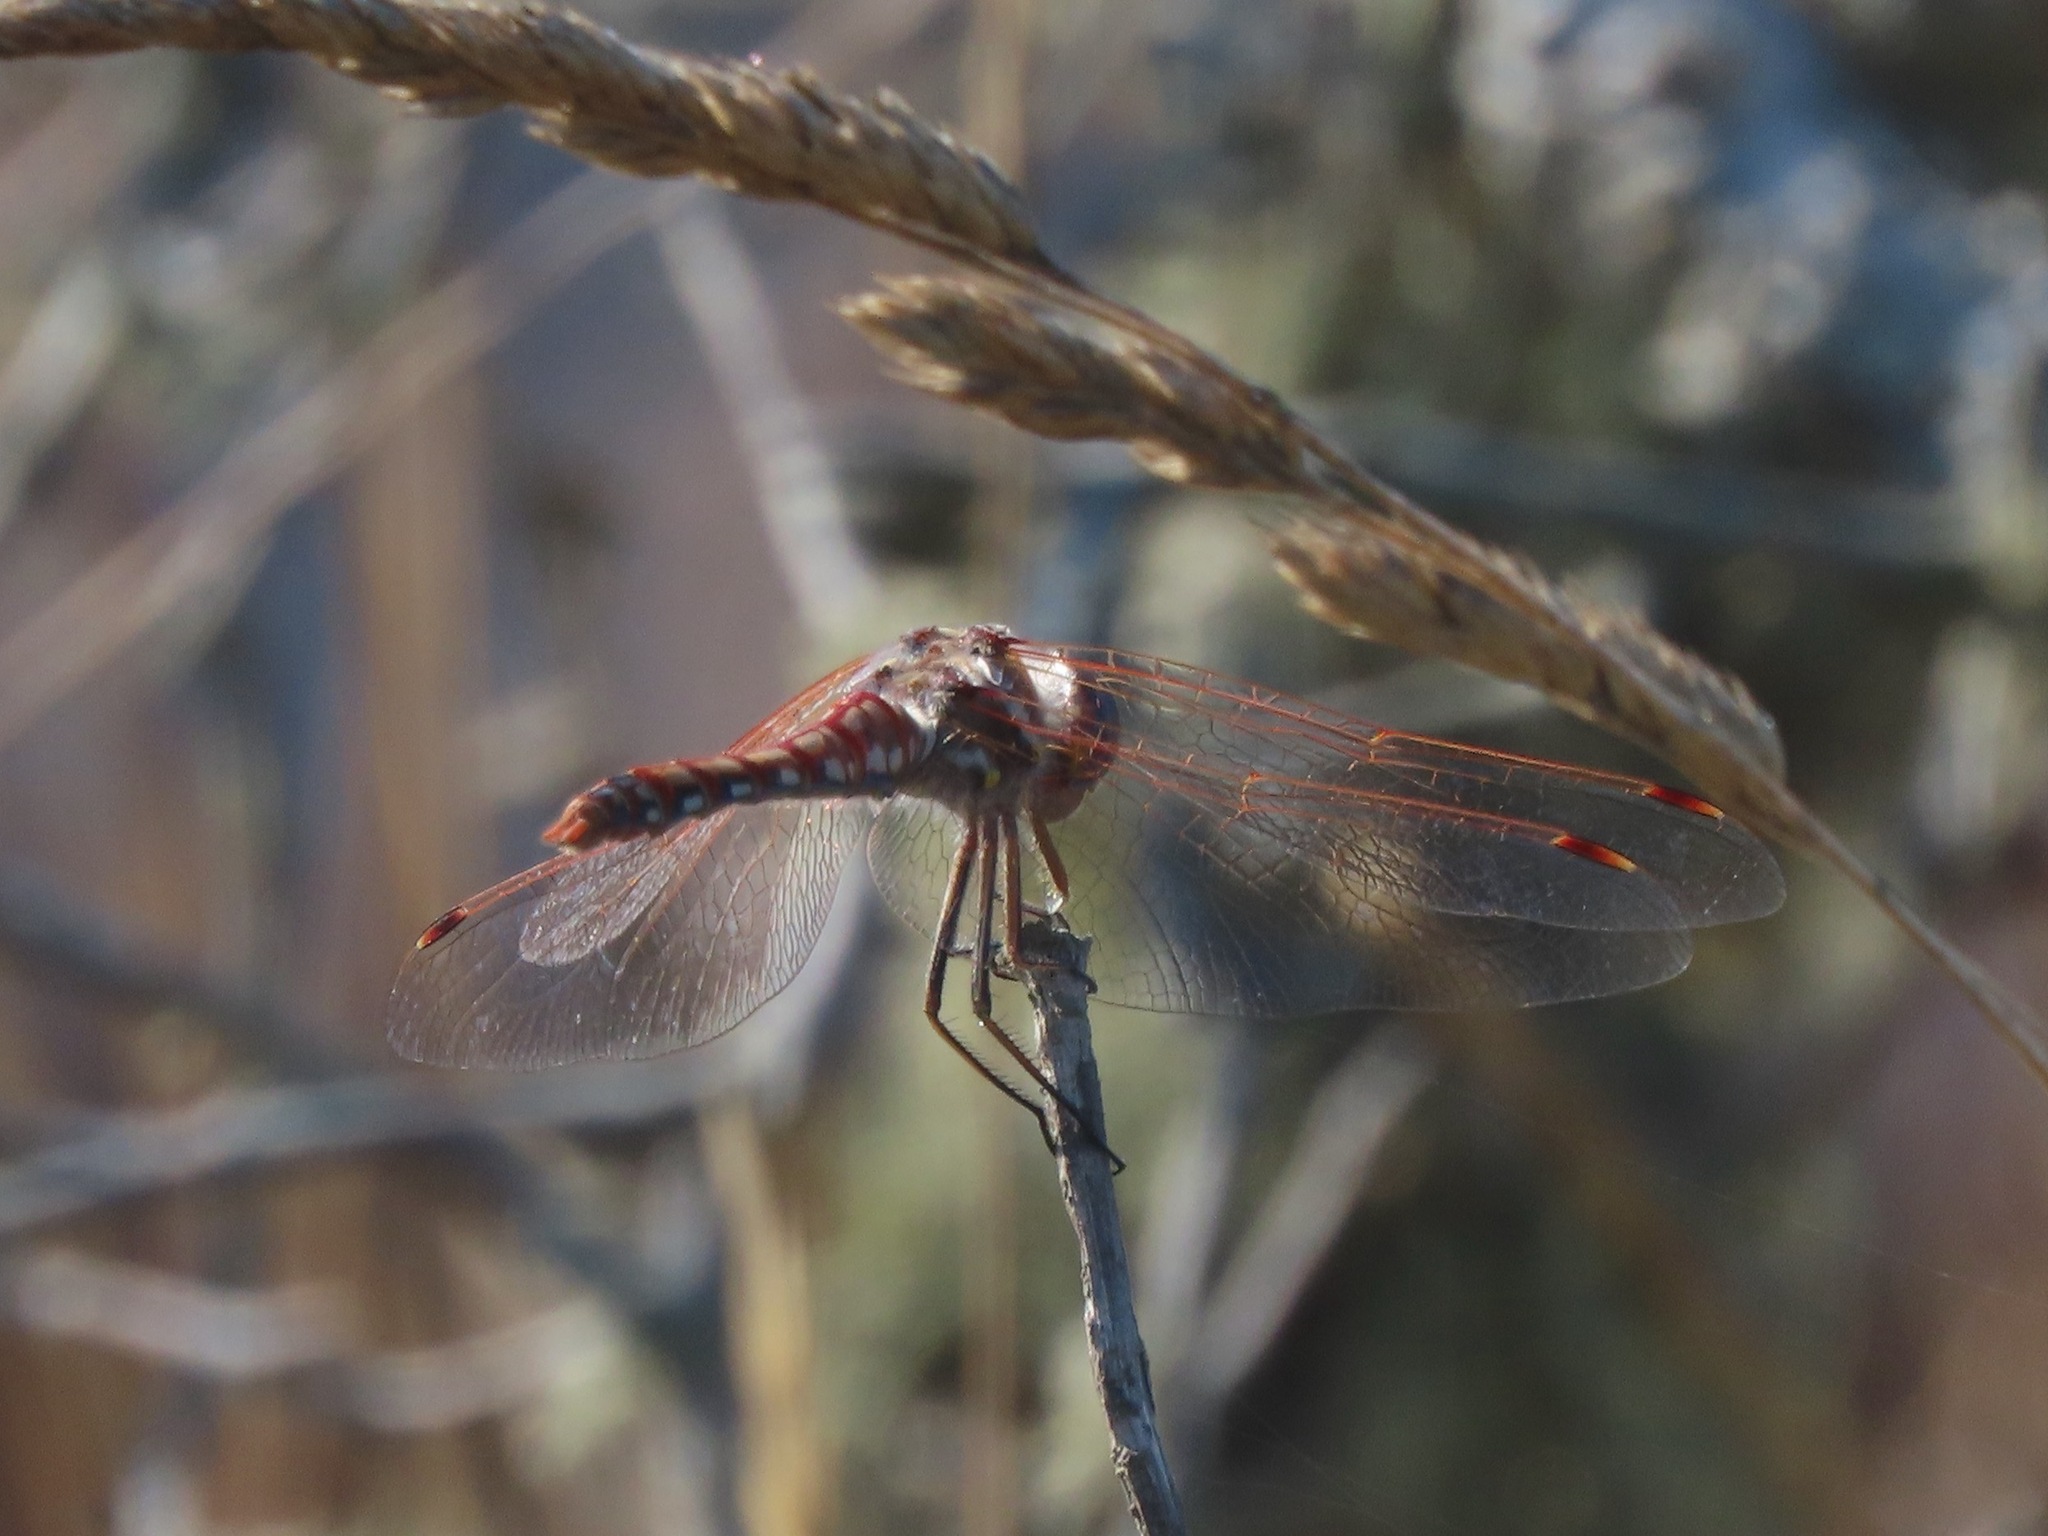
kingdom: Animalia
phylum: Arthropoda
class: Insecta
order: Odonata
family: Libellulidae
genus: Sympetrum
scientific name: Sympetrum corruptum
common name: Variegated meadowhawk
